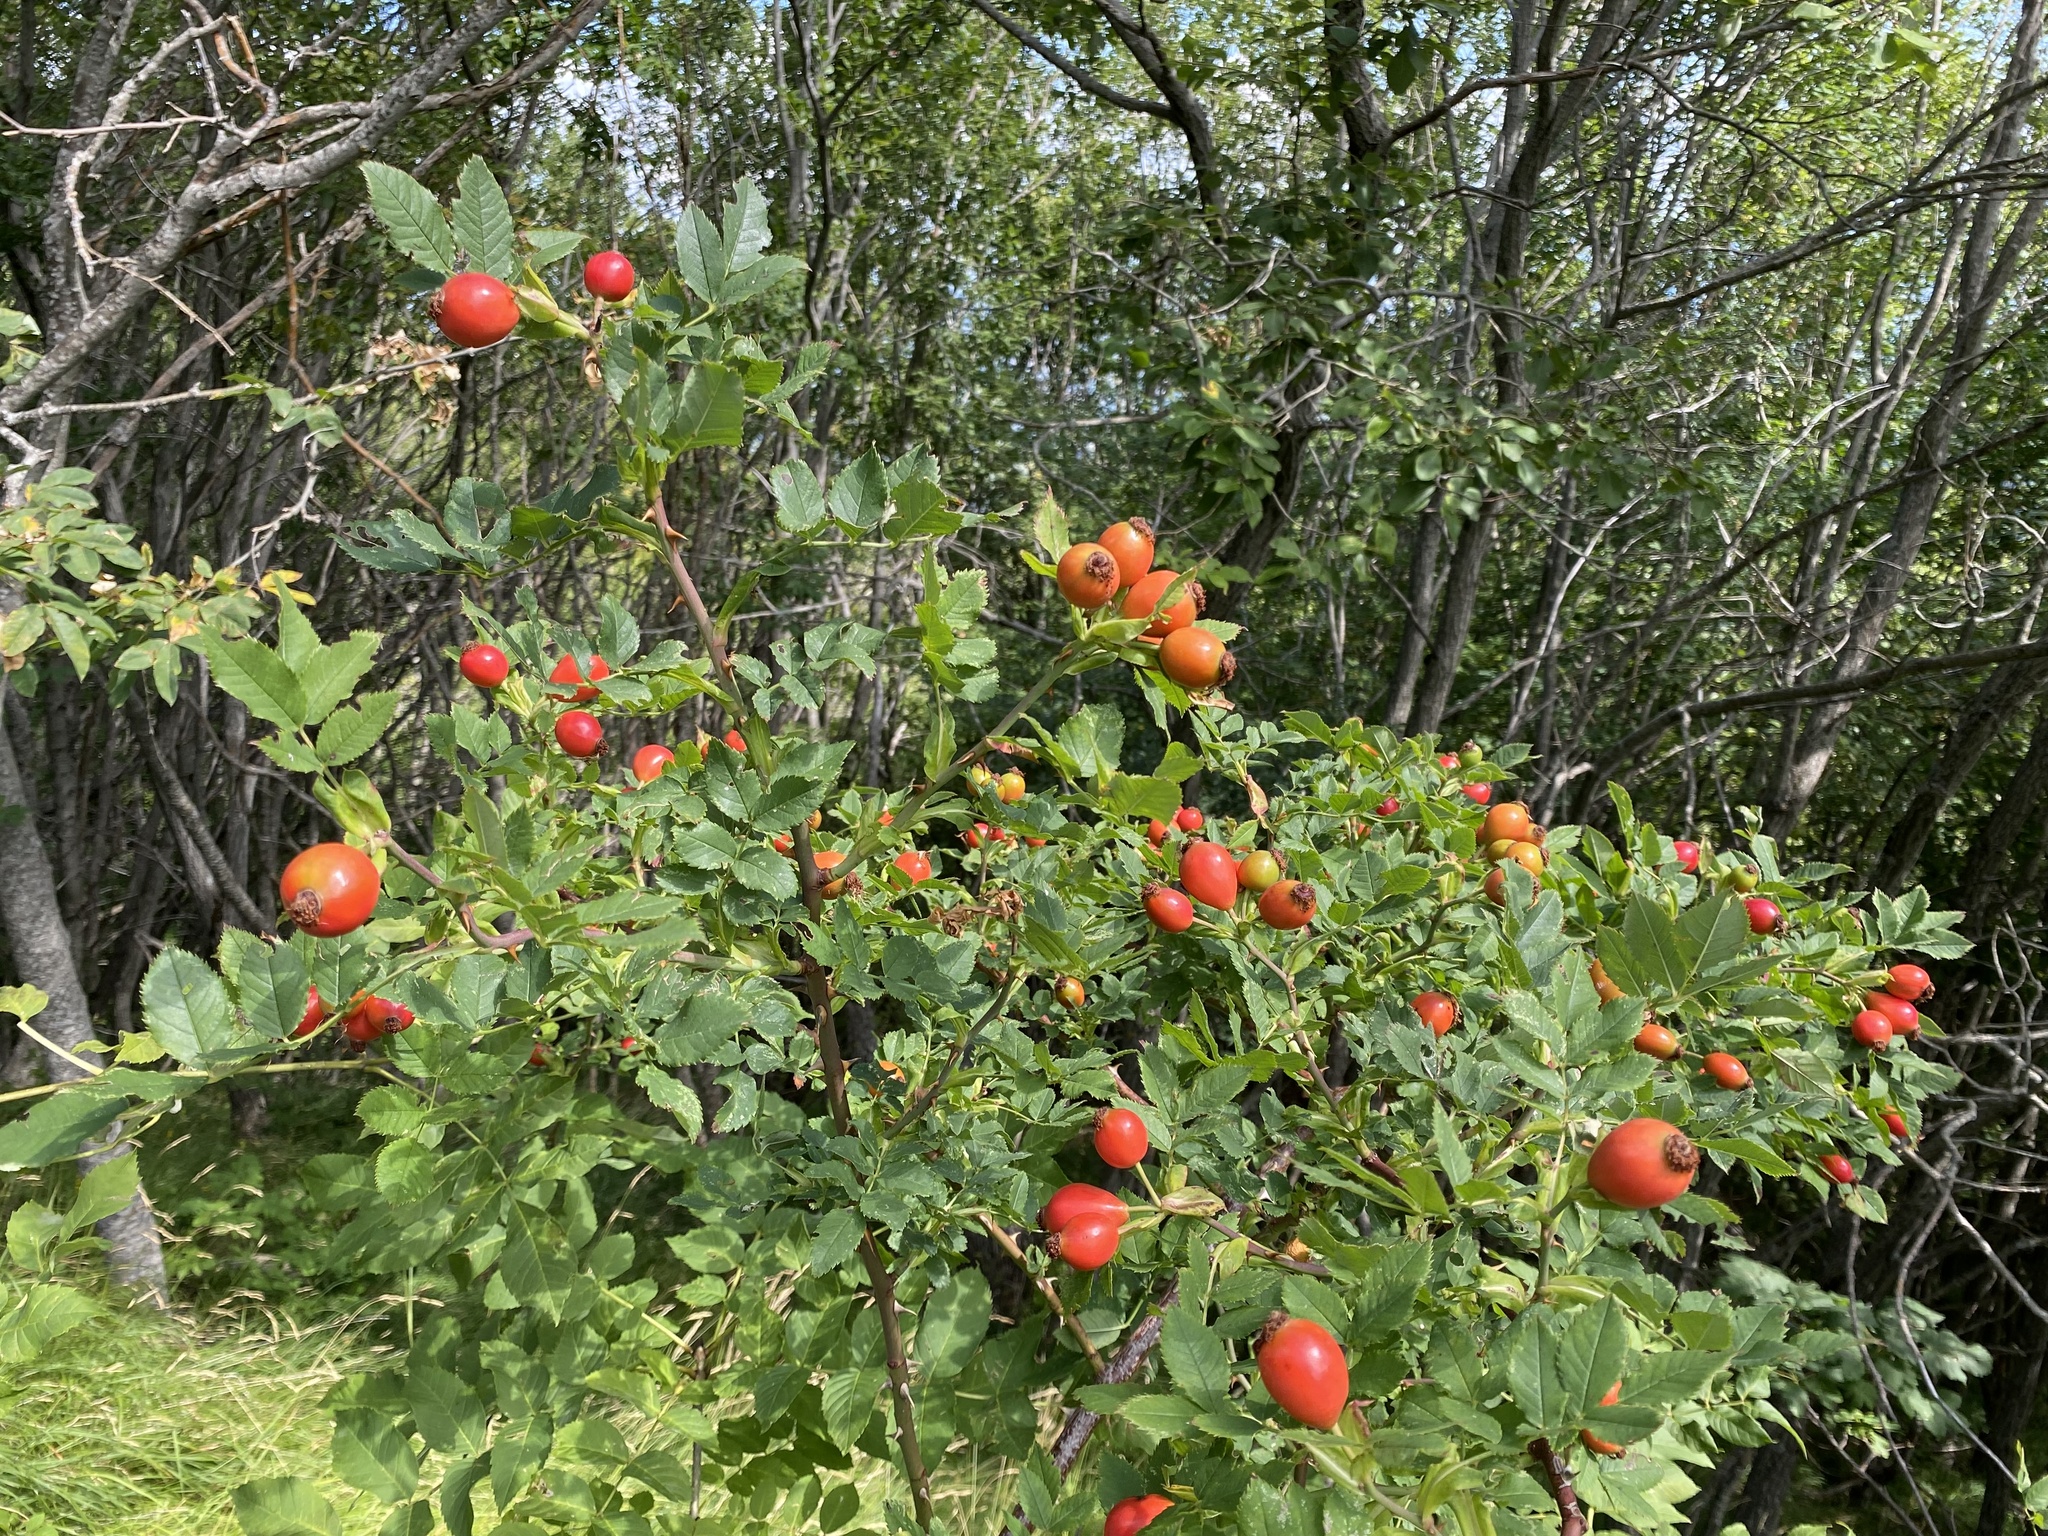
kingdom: Plantae
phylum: Tracheophyta
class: Magnoliopsida
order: Rosales
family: Rosaceae
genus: Rosa
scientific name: Rosa canina
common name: Dog rose
